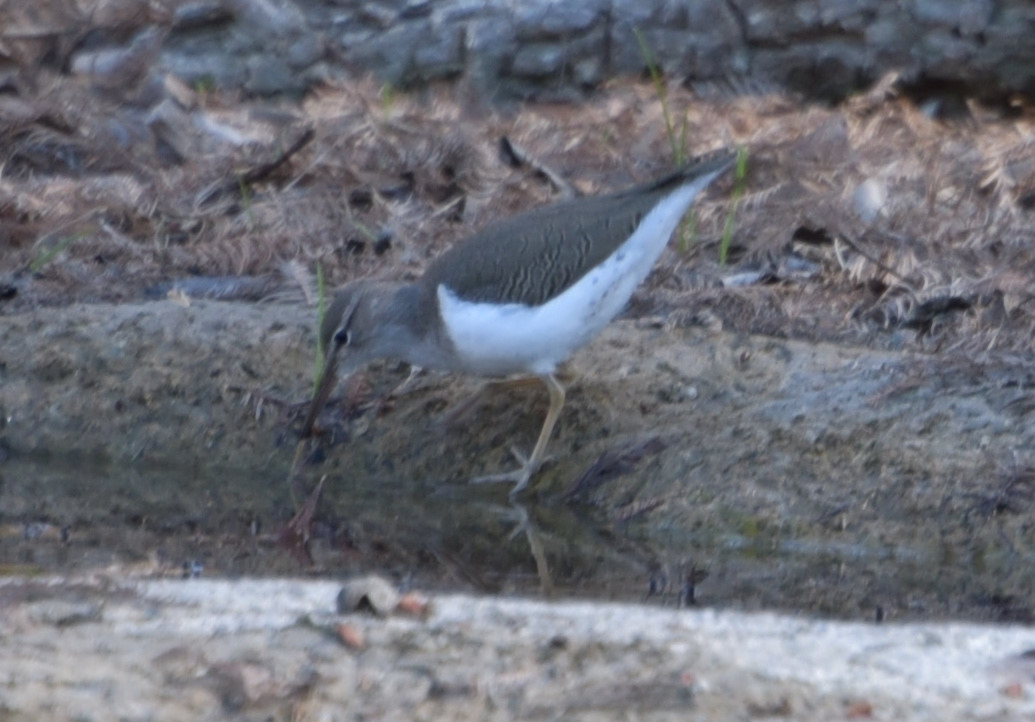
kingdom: Animalia
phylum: Chordata
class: Aves
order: Charadriiformes
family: Scolopacidae
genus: Actitis
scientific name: Actitis macularius
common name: Spotted sandpiper
